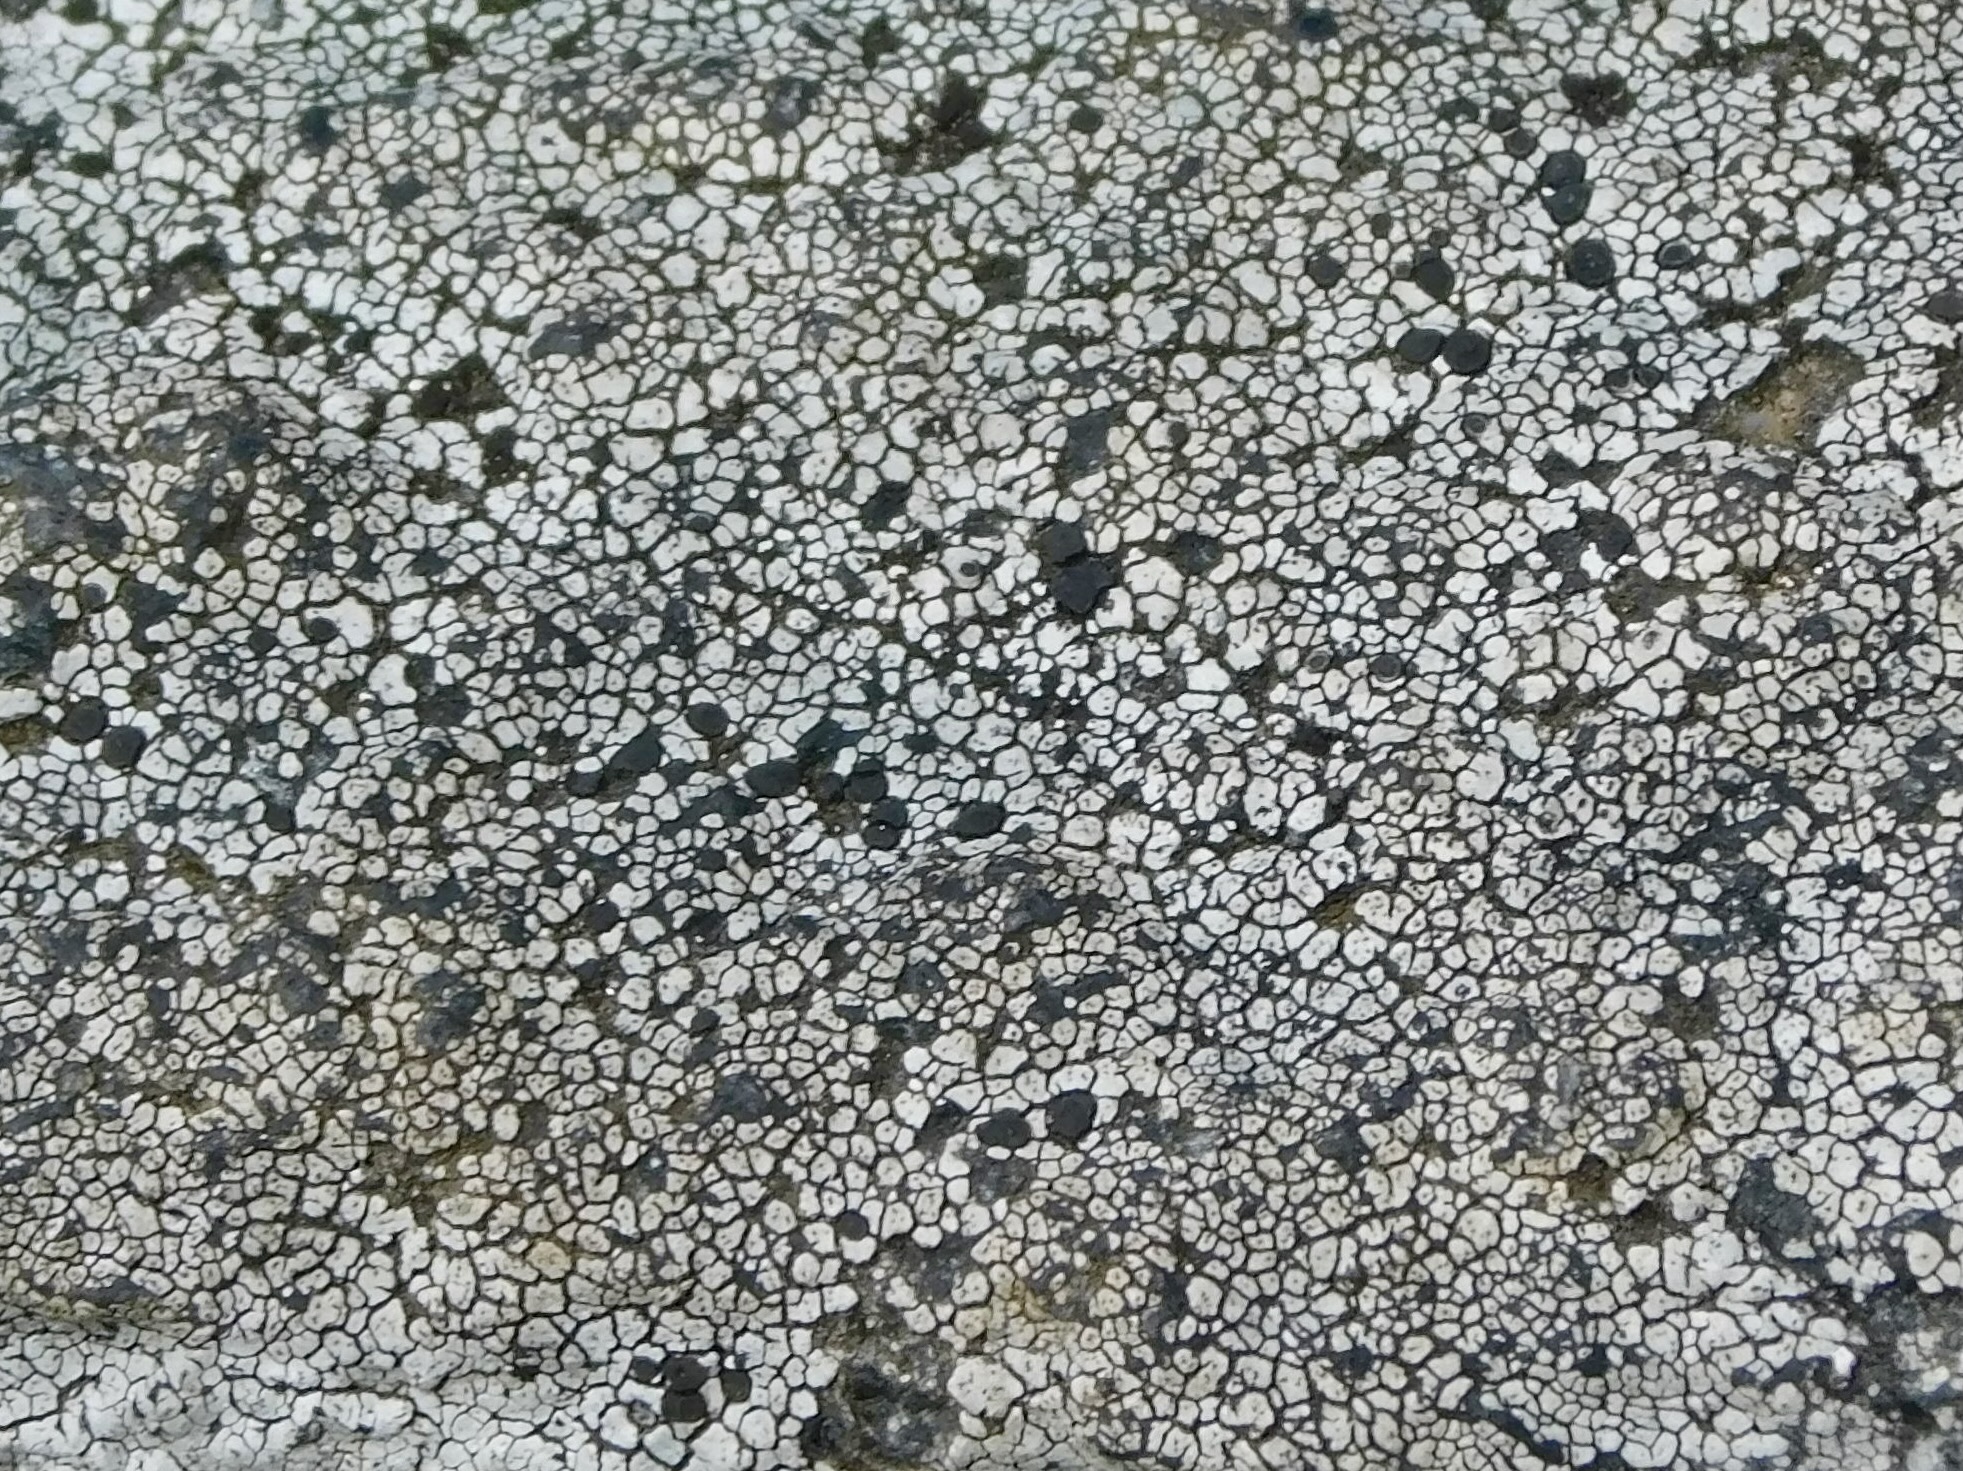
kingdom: Fungi
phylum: Ascomycota
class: Lecanoromycetes
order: Lecanorales
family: Lecanoraceae
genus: Lecanora
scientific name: Lecanora oreinoides
